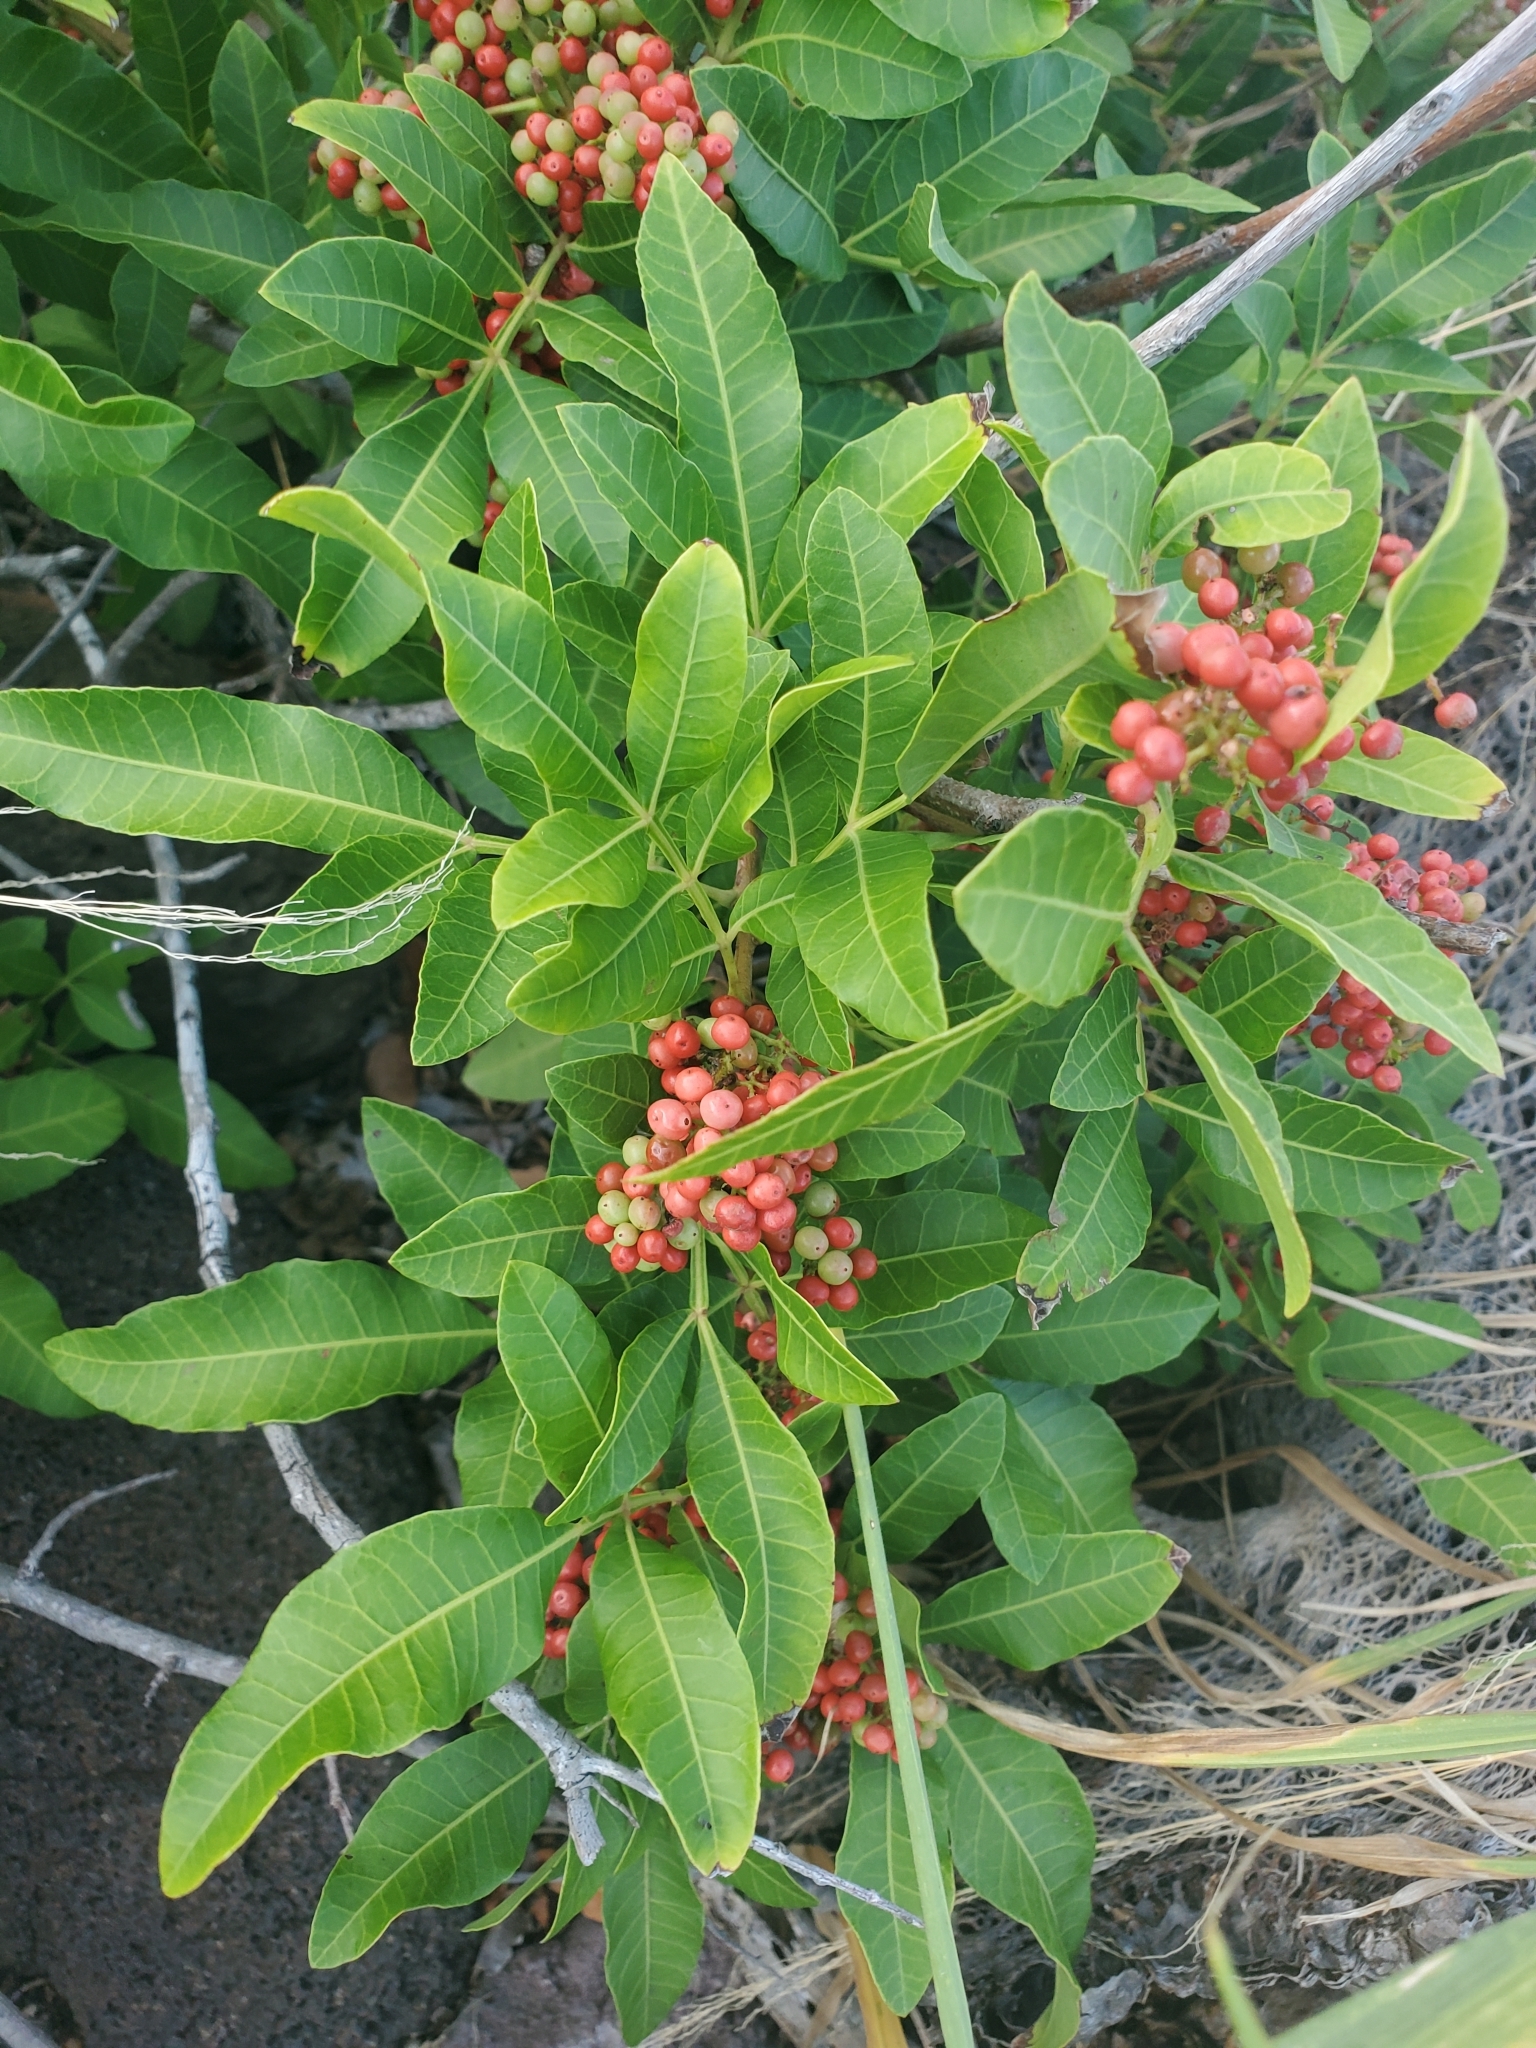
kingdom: Plantae
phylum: Tracheophyta
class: Magnoliopsida
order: Sapindales
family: Anacardiaceae
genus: Schinus
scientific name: Schinus terebinthifolia
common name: Brazilian peppertree
